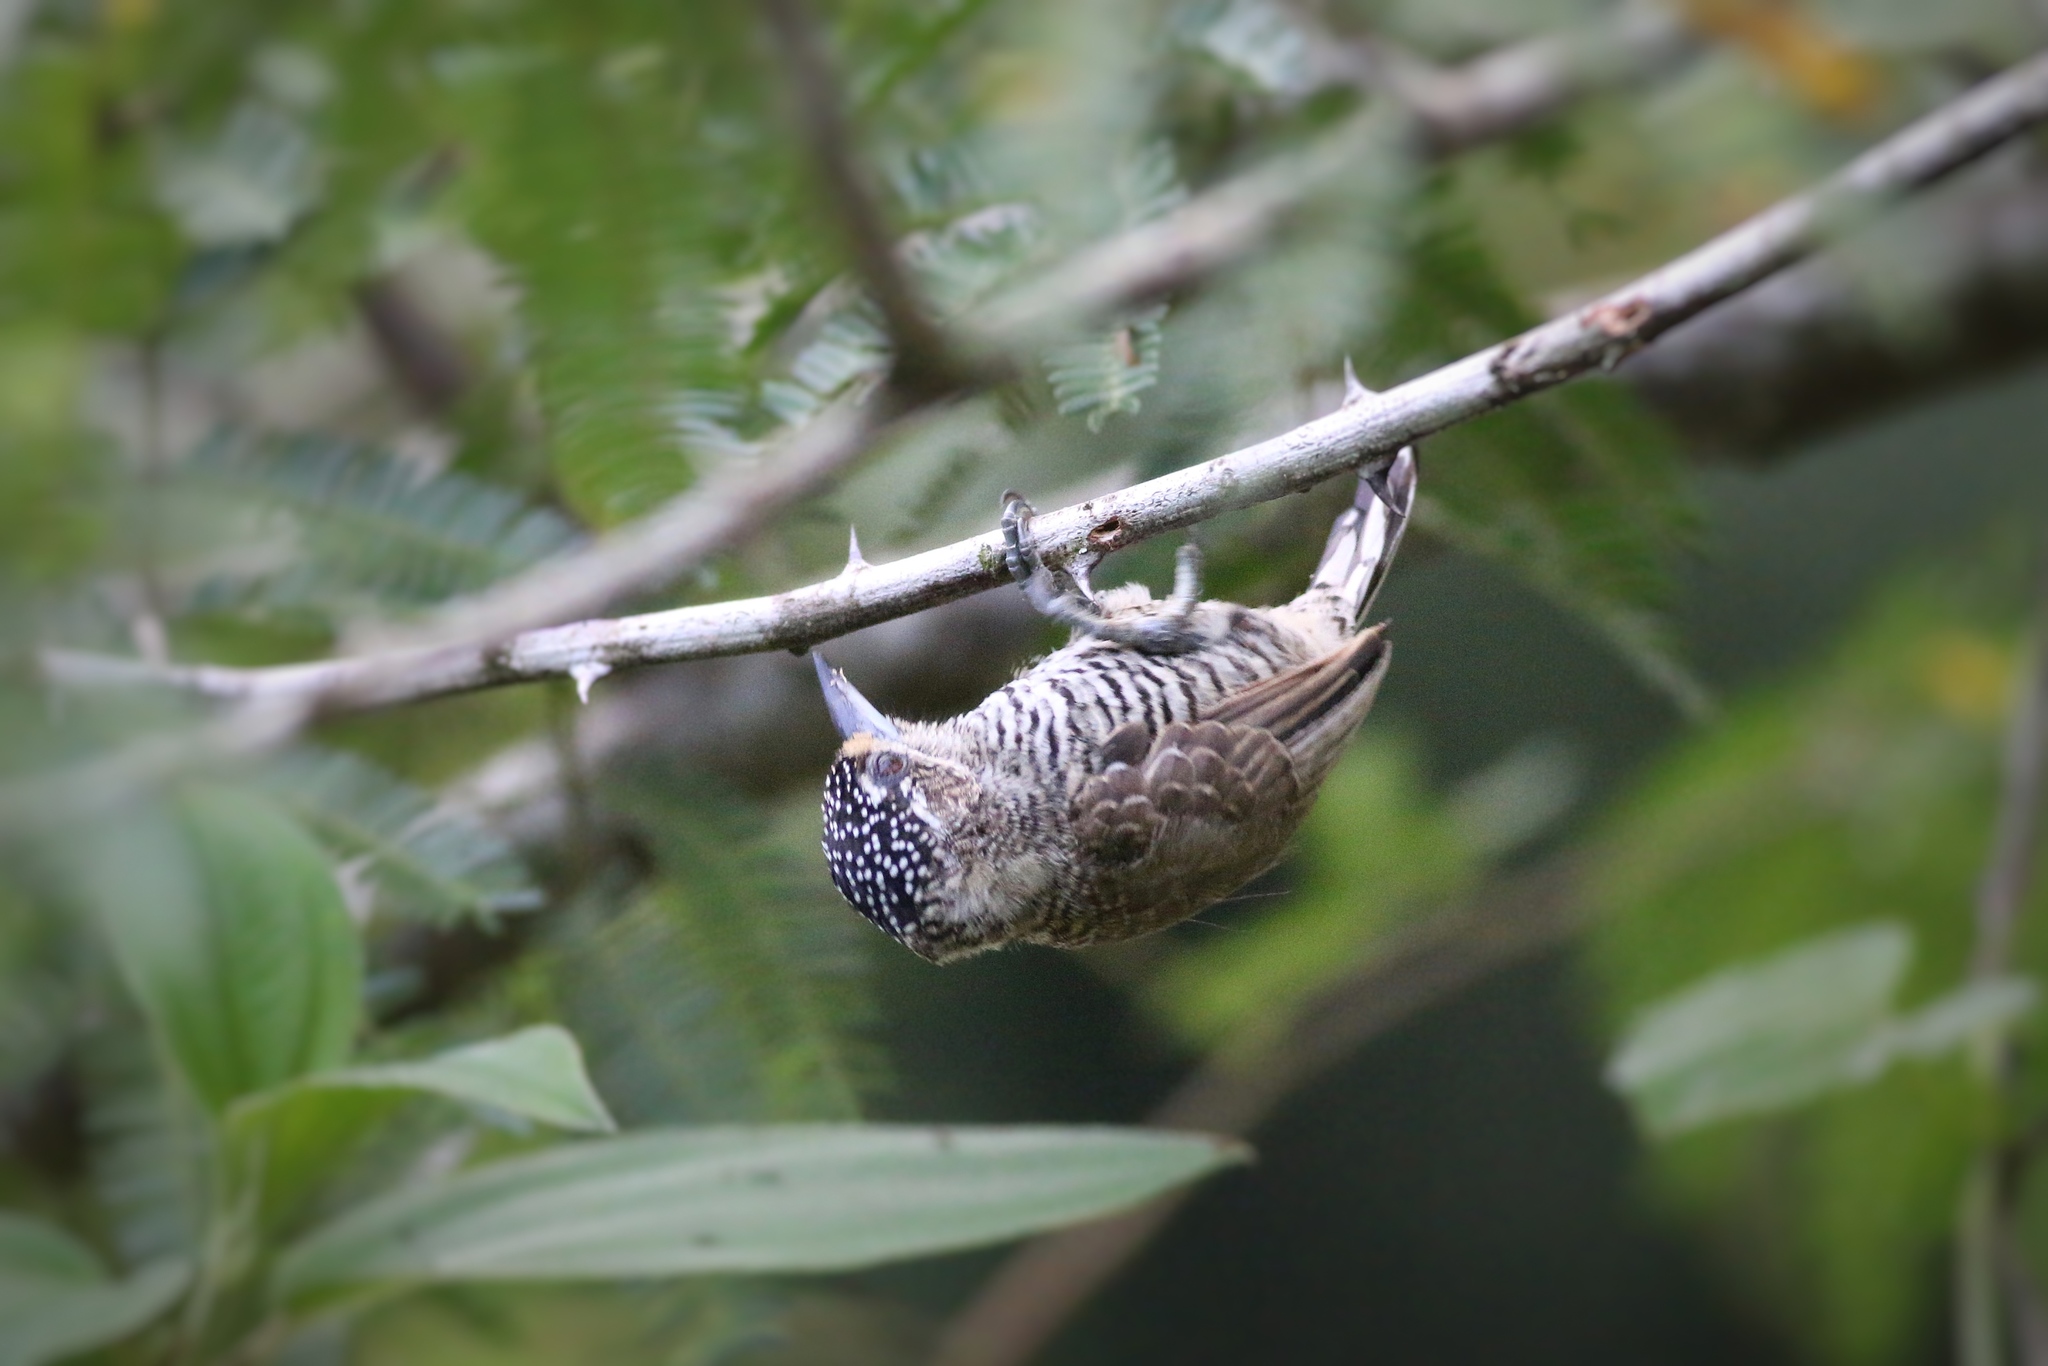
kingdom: Animalia
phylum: Chordata
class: Aves
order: Piciformes
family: Picidae
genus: Picumnus
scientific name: Picumnus cirratus
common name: White-barred piculet
